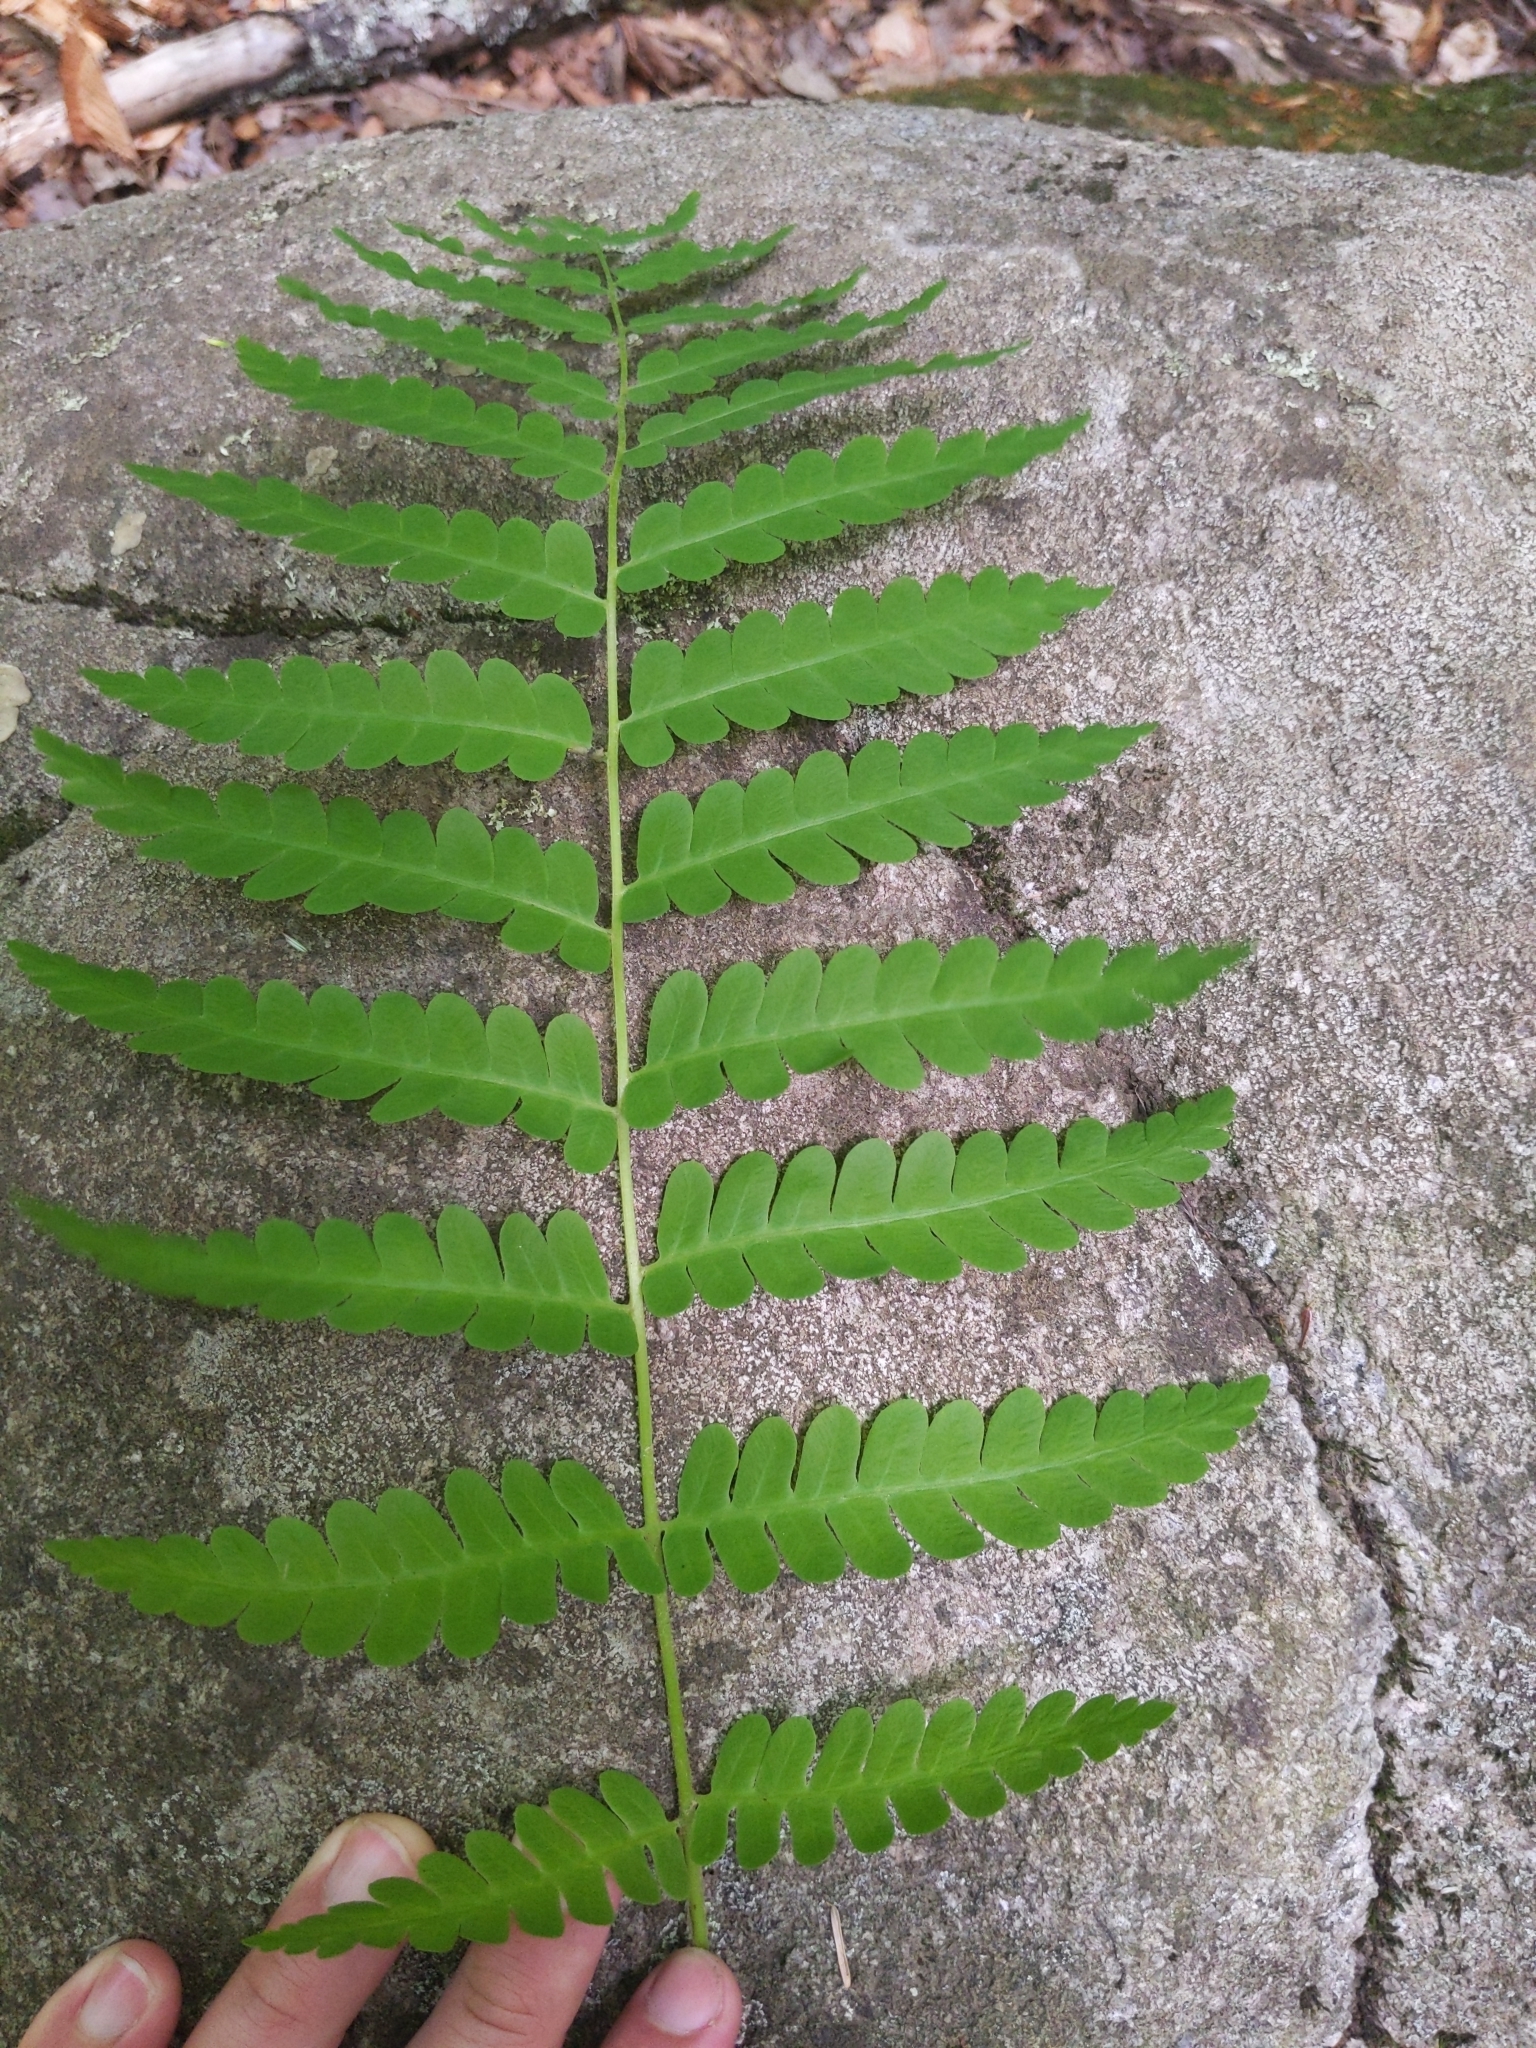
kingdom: Plantae
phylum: Tracheophyta
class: Polypodiopsida
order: Osmundales
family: Osmundaceae
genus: Claytosmunda
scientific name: Claytosmunda claytoniana
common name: Clayton's fern
